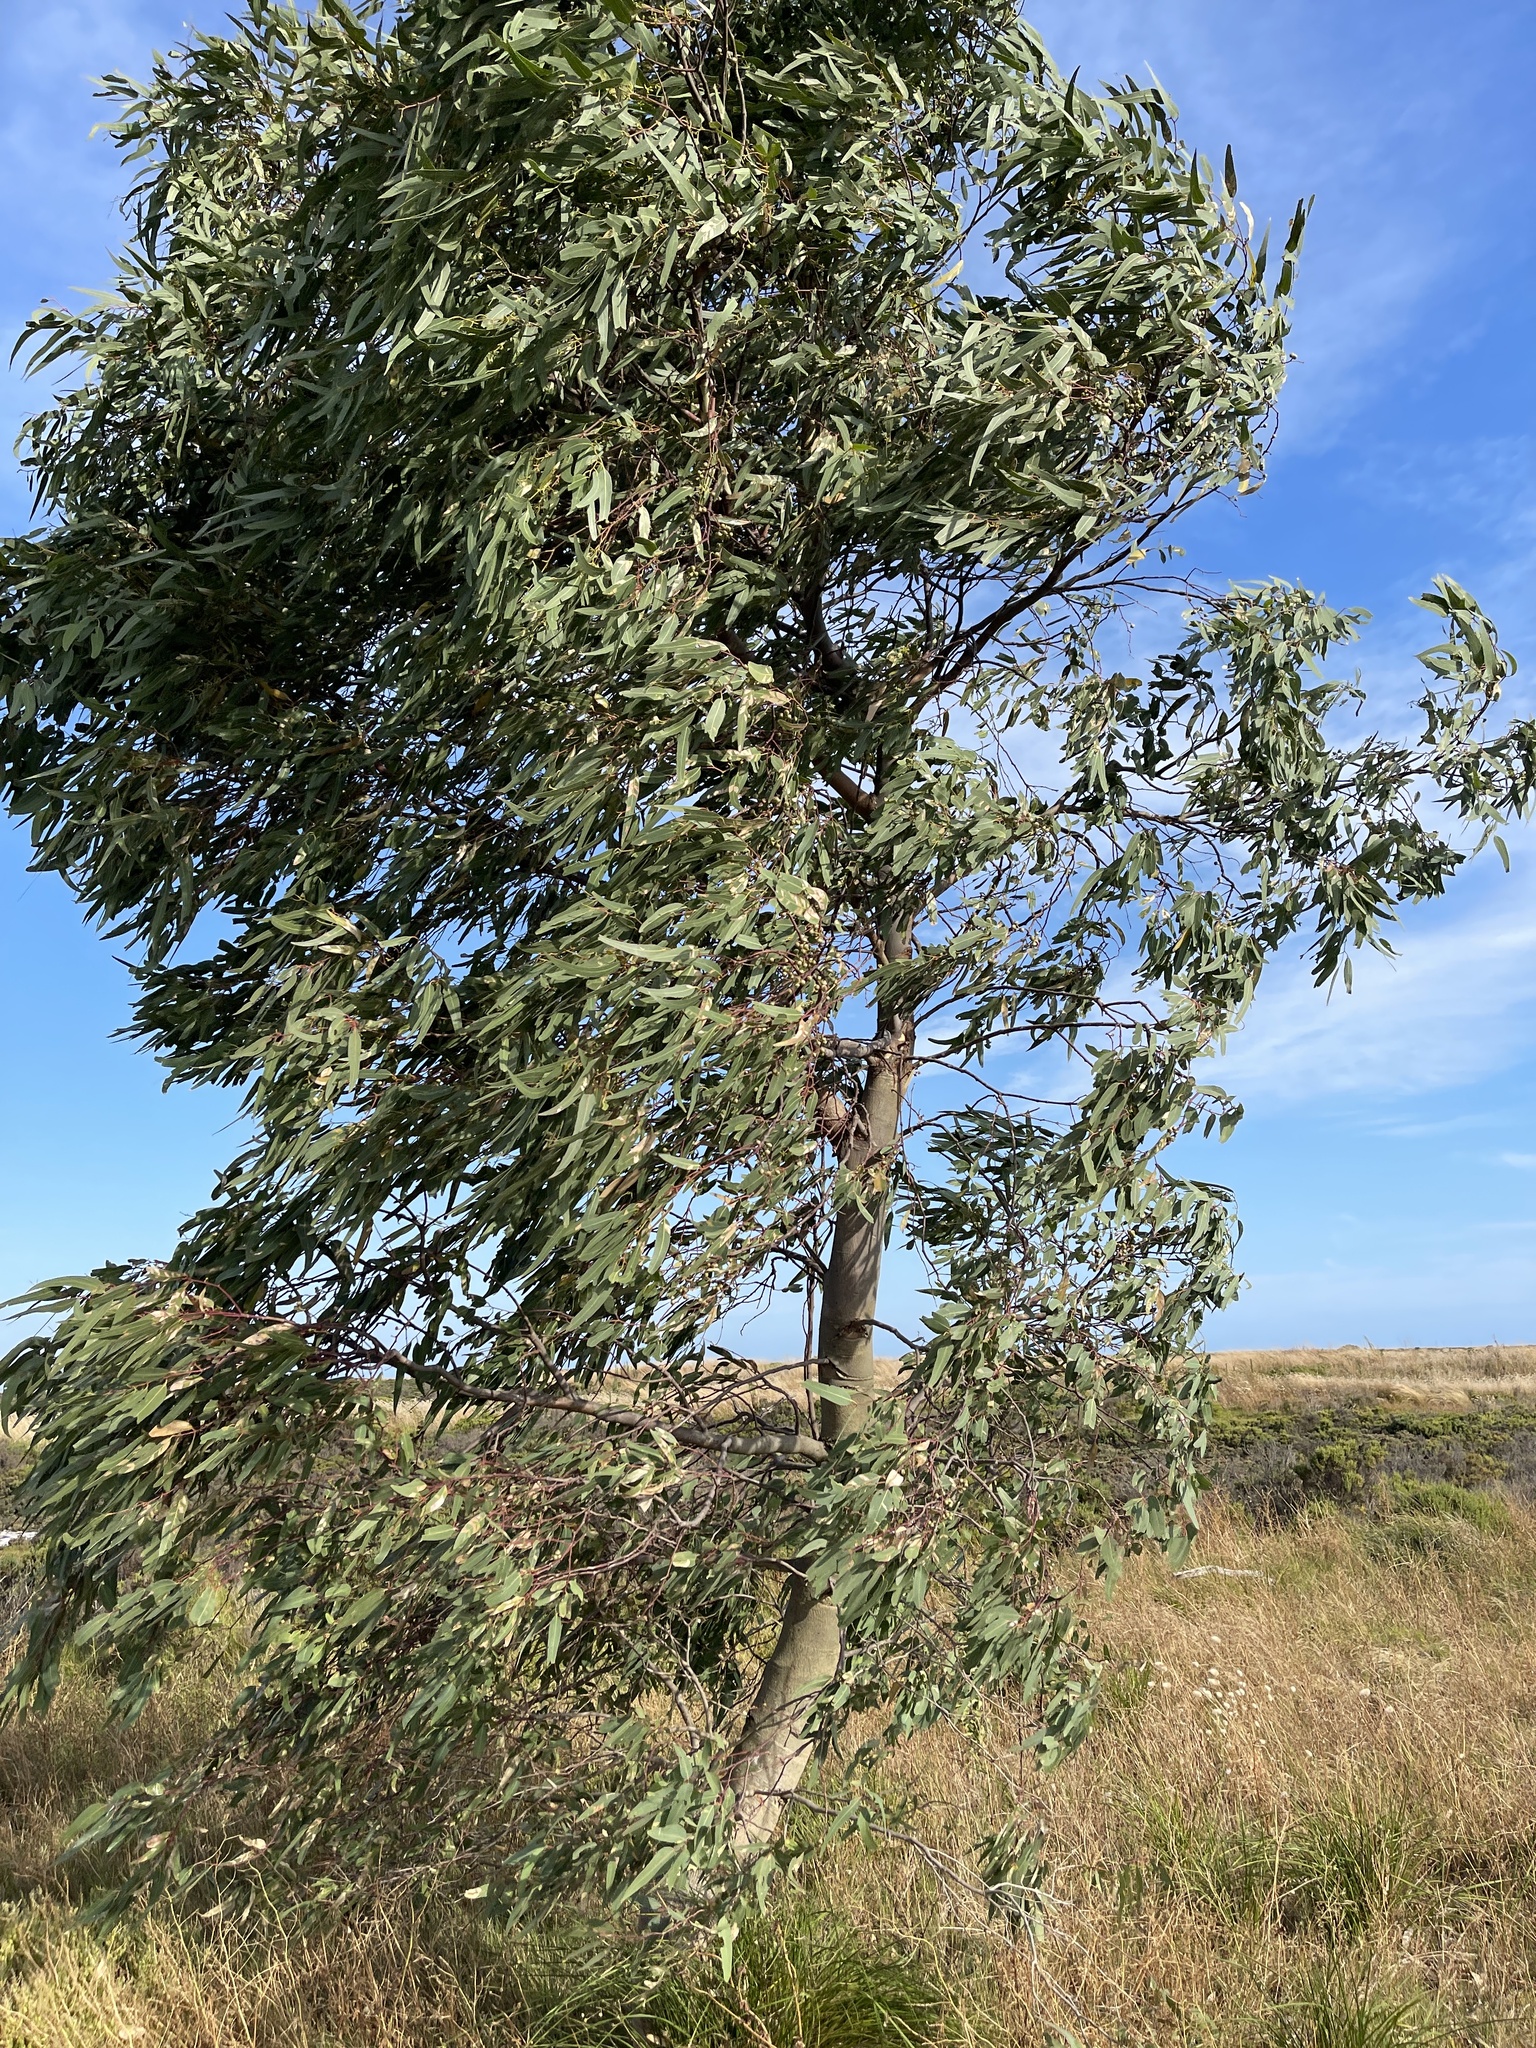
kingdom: Plantae
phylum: Tracheophyta
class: Magnoliopsida
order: Myrtales
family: Myrtaceae
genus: Eucalyptus
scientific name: Eucalyptus camaldulensis
